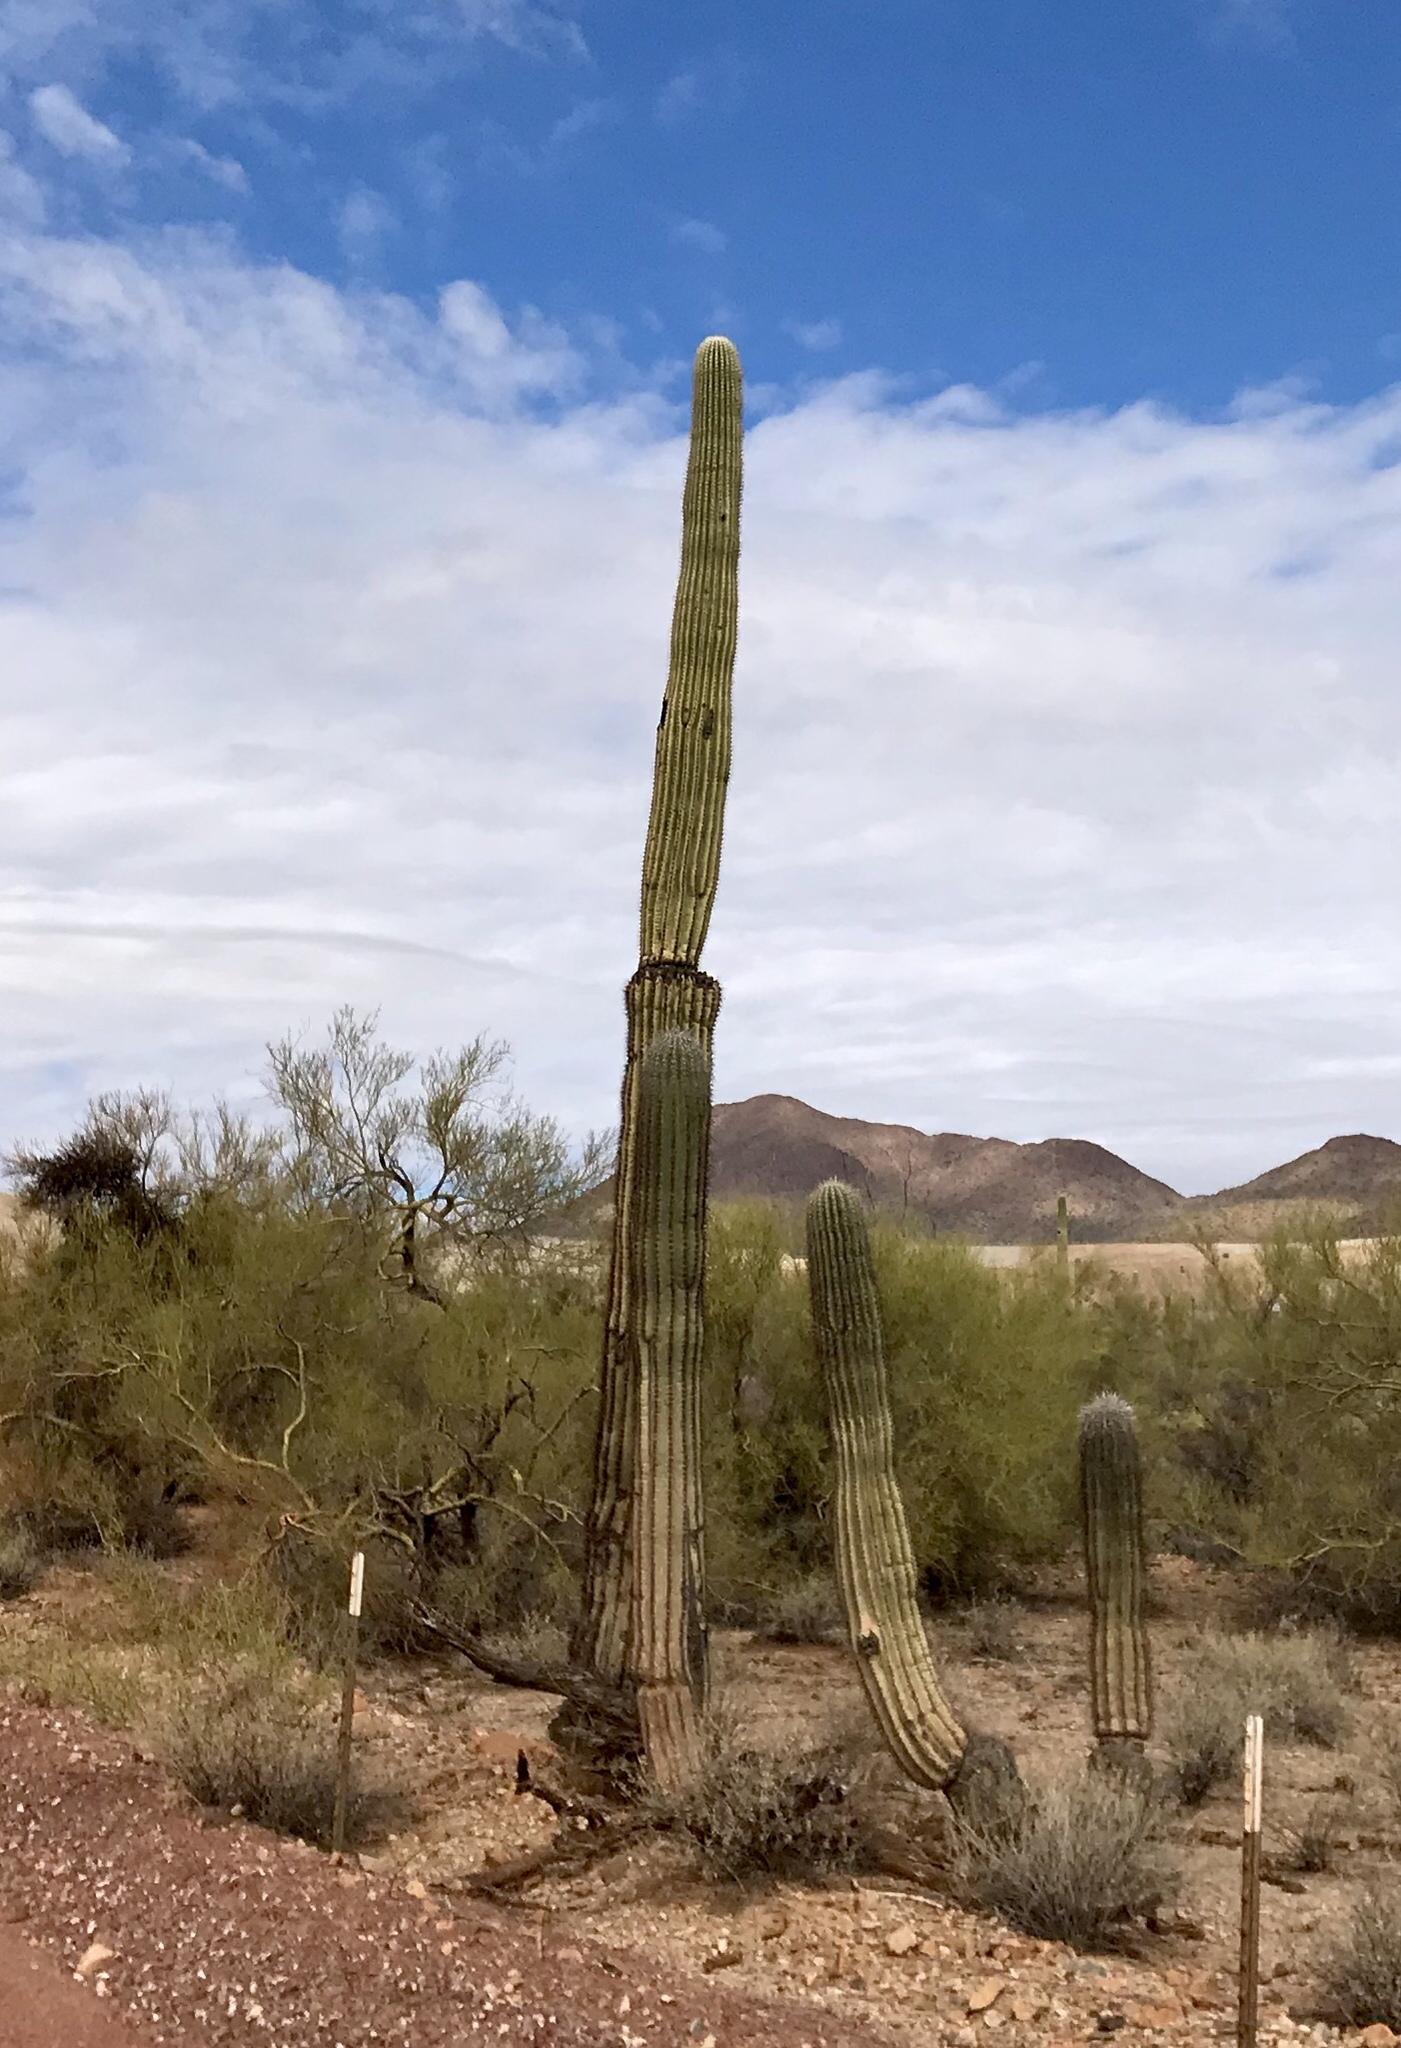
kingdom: Plantae
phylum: Tracheophyta
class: Magnoliopsida
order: Caryophyllales
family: Cactaceae
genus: Carnegiea
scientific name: Carnegiea gigantea
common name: Saguaro
